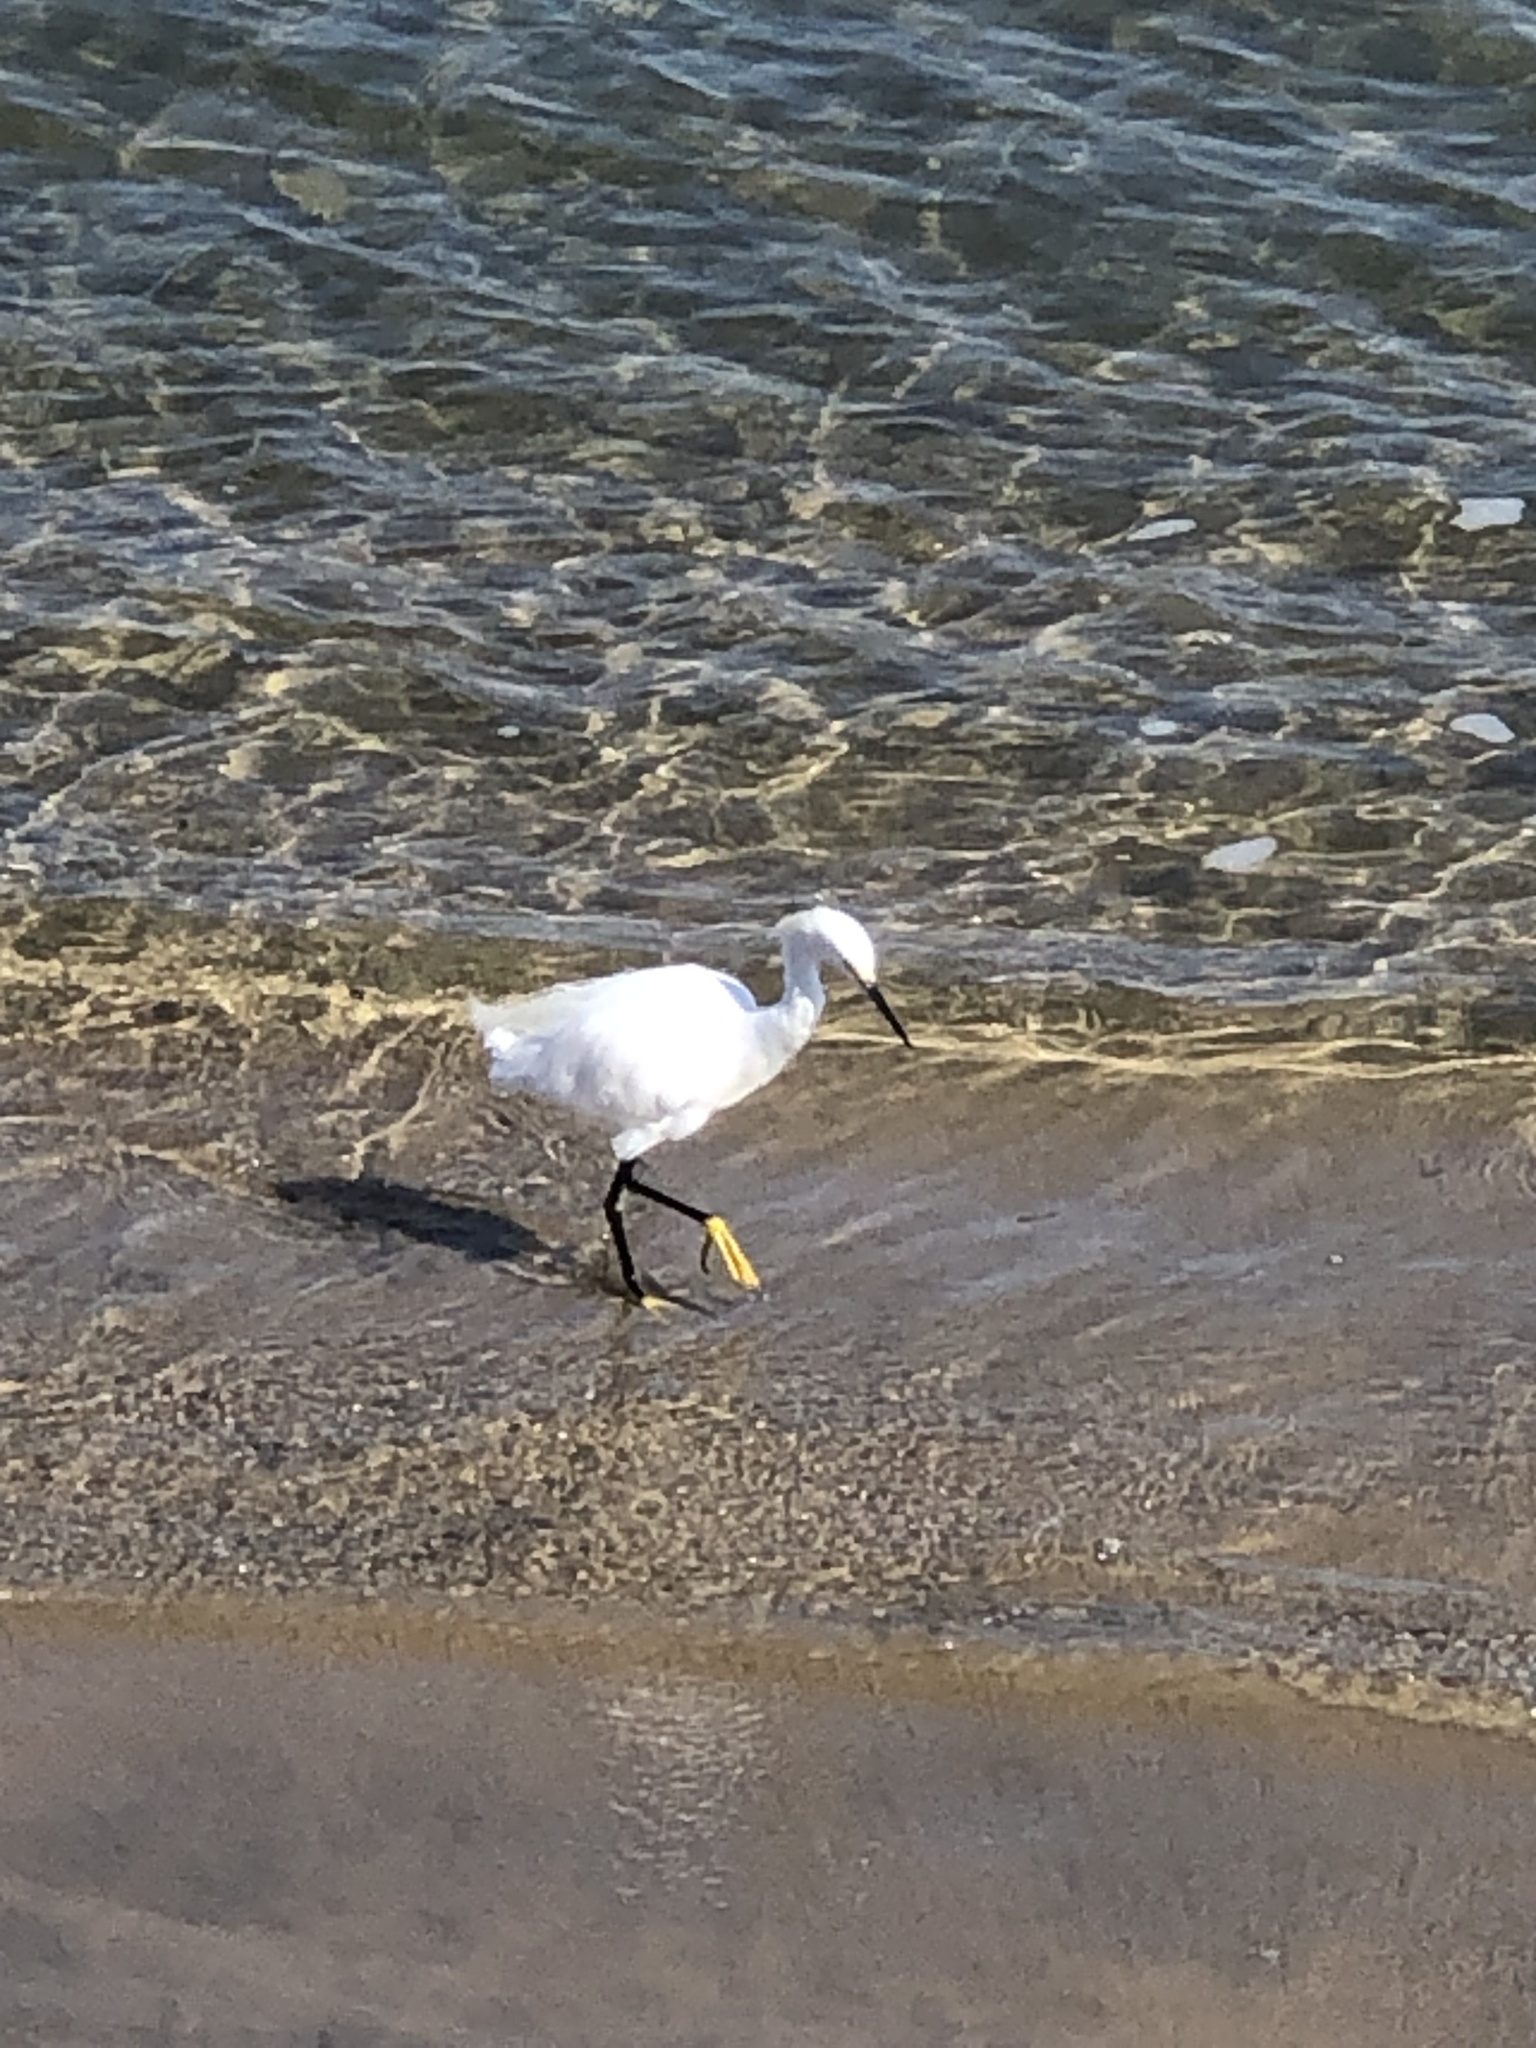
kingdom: Animalia
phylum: Chordata
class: Aves
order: Pelecaniformes
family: Ardeidae
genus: Egretta
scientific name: Egretta thula
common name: Snowy egret
